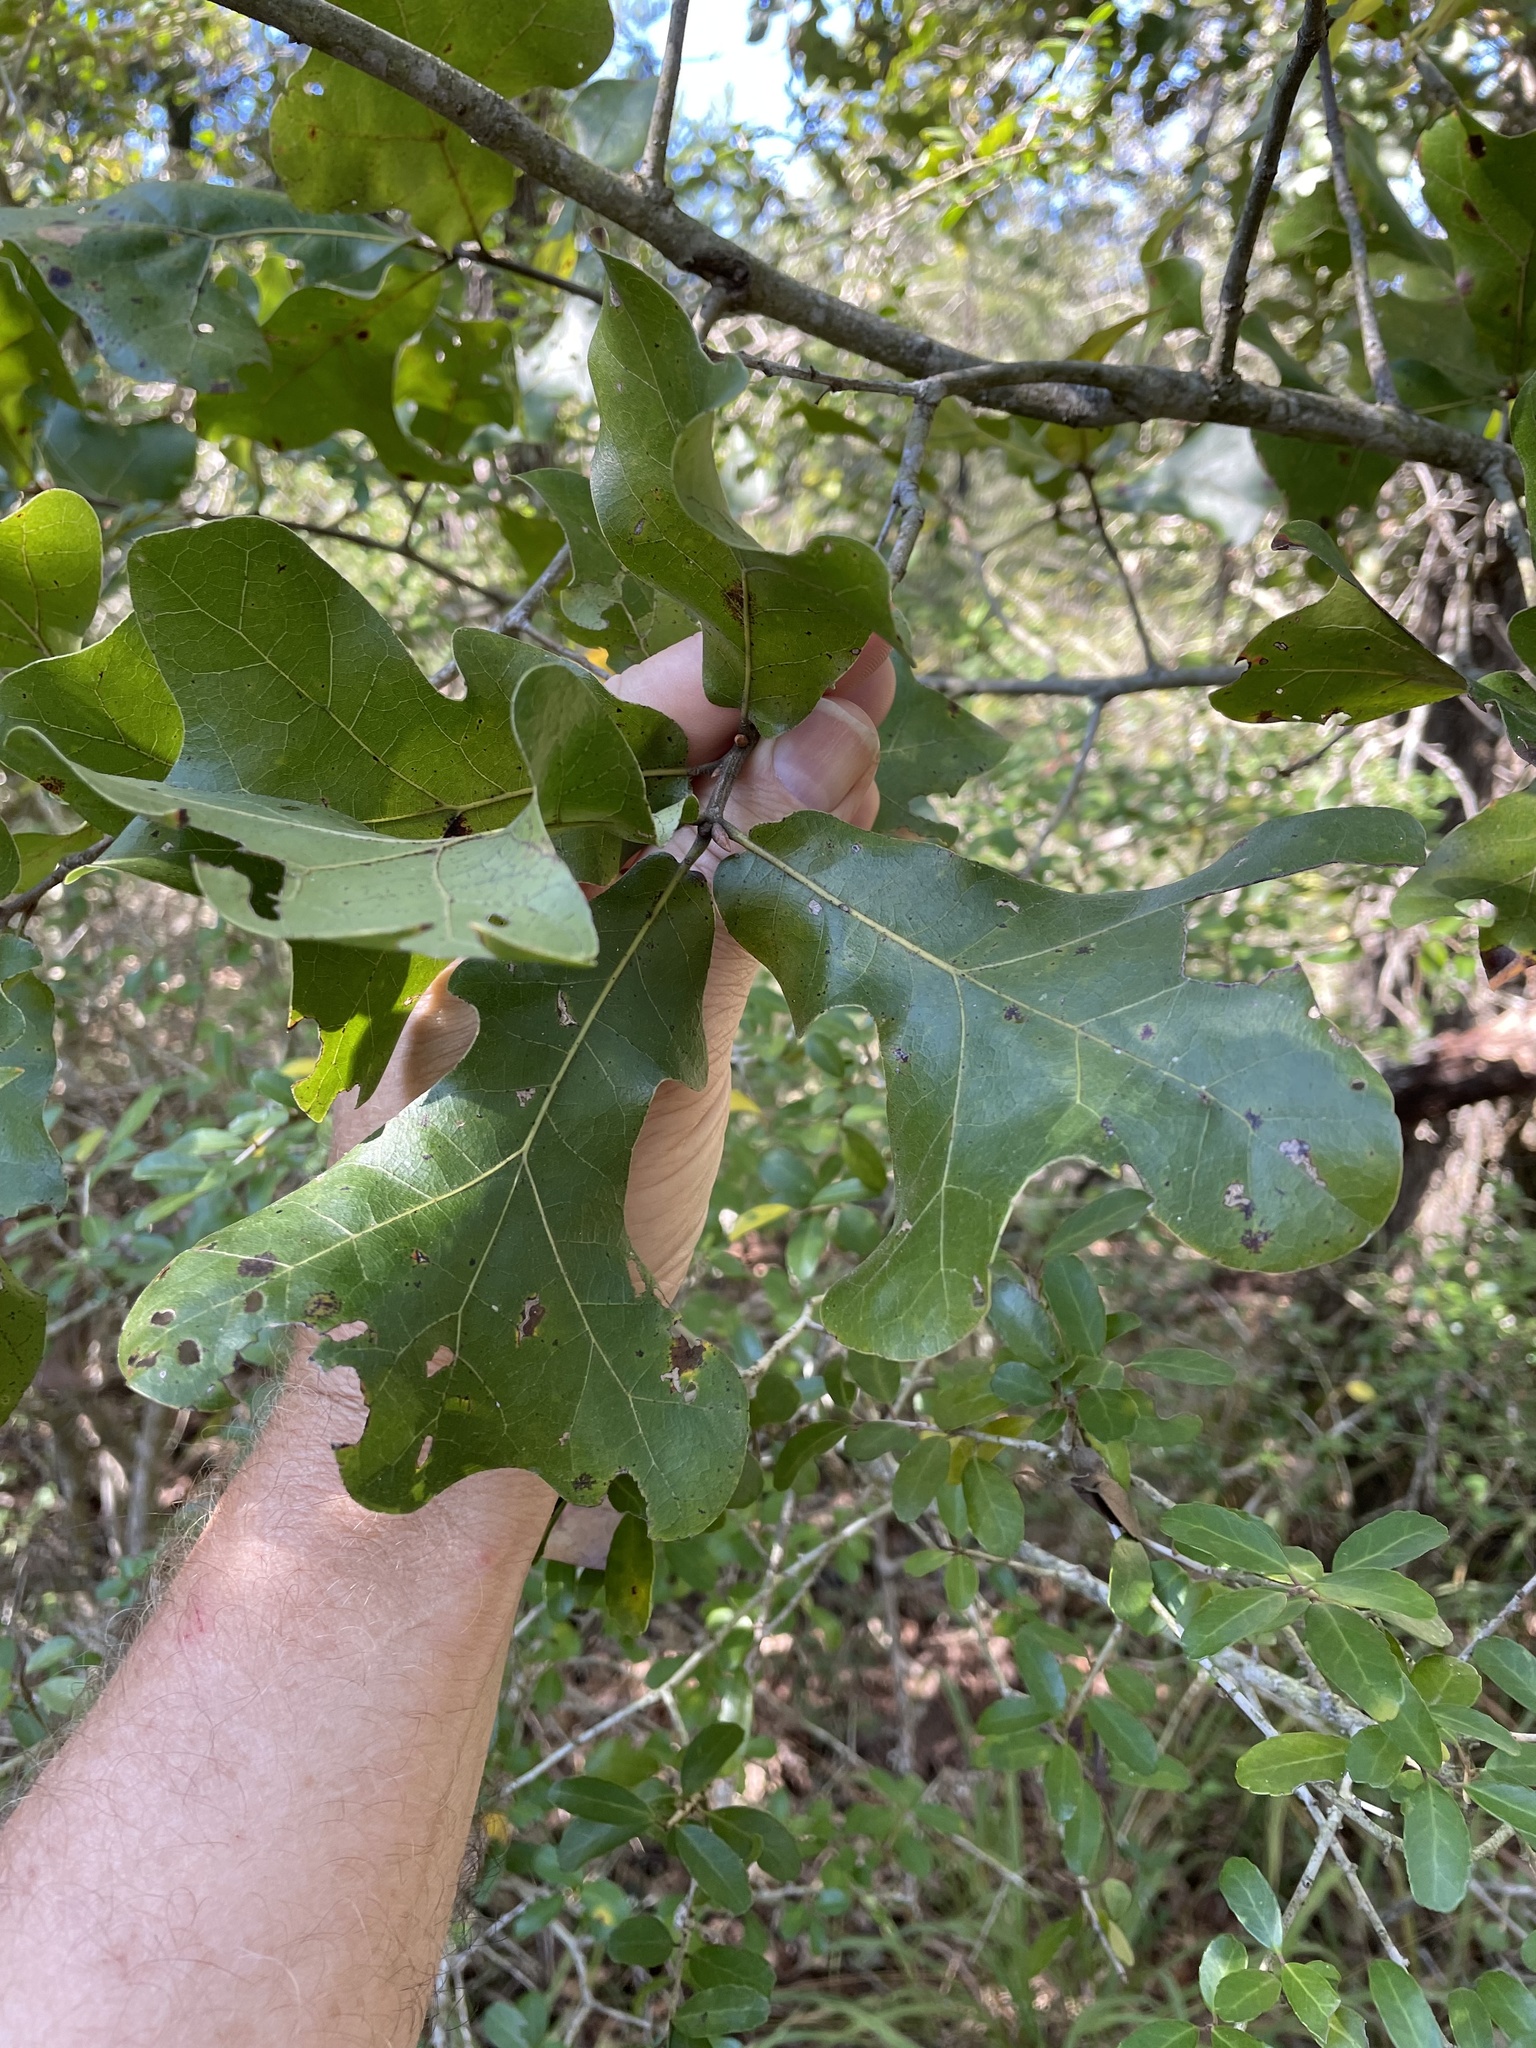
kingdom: Plantae
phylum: Tracheophyta
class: Magnoliopsida
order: Fagales
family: Fagaceae
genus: Quercus
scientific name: Quercus marilandica
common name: Blackjack oak
